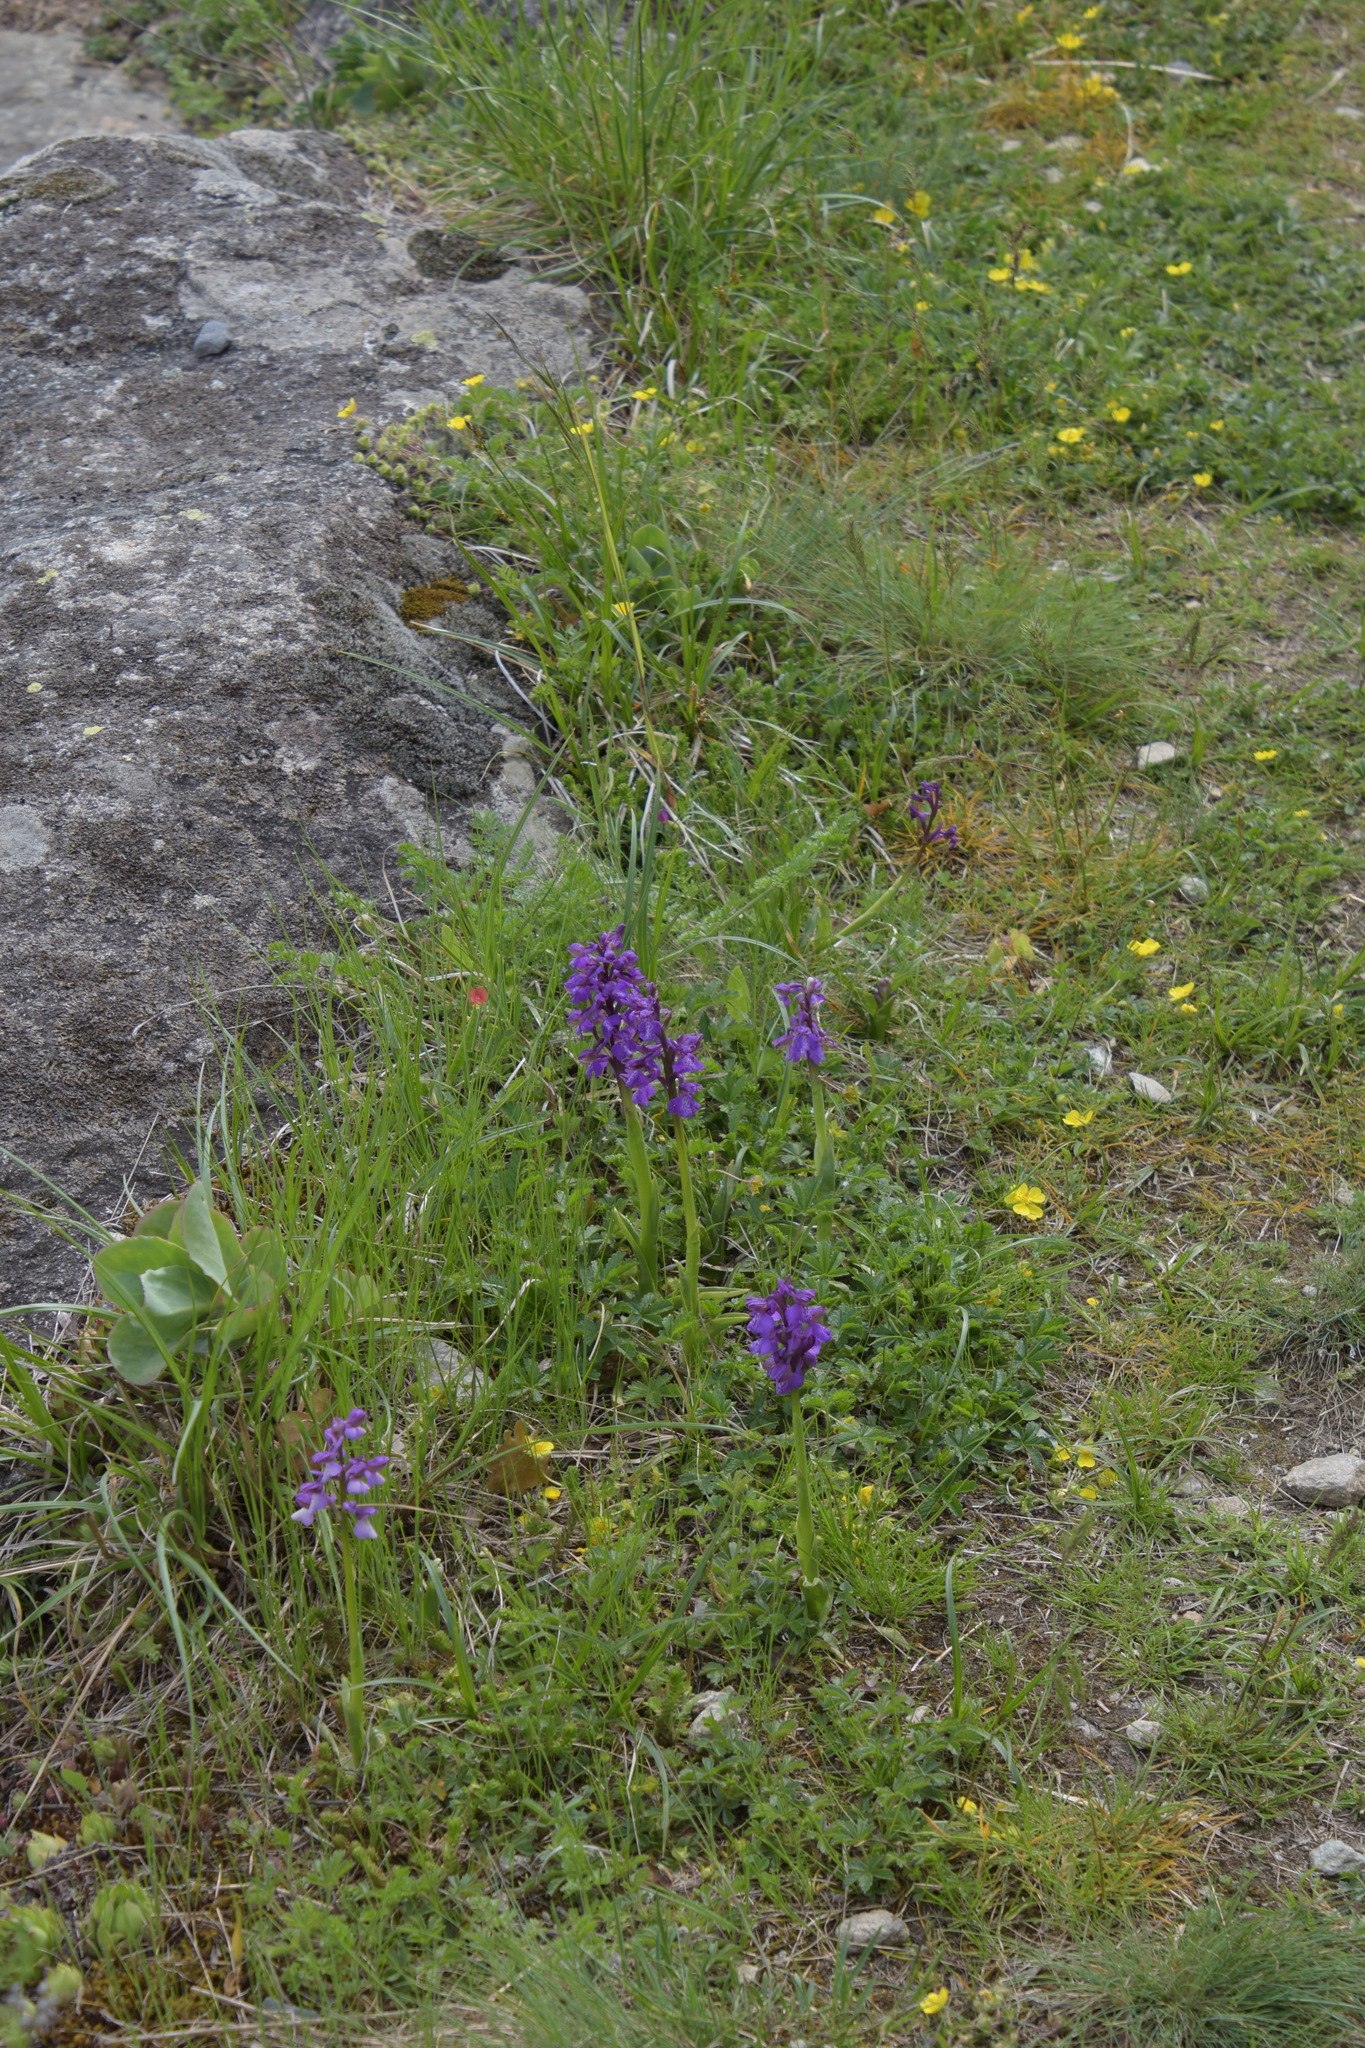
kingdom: Plantae
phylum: Tracheophyta
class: Liliopsida
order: Asparagales
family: Orchidaceae
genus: Anacamptis
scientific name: Anacamptis morio
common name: Green-winged orchid
